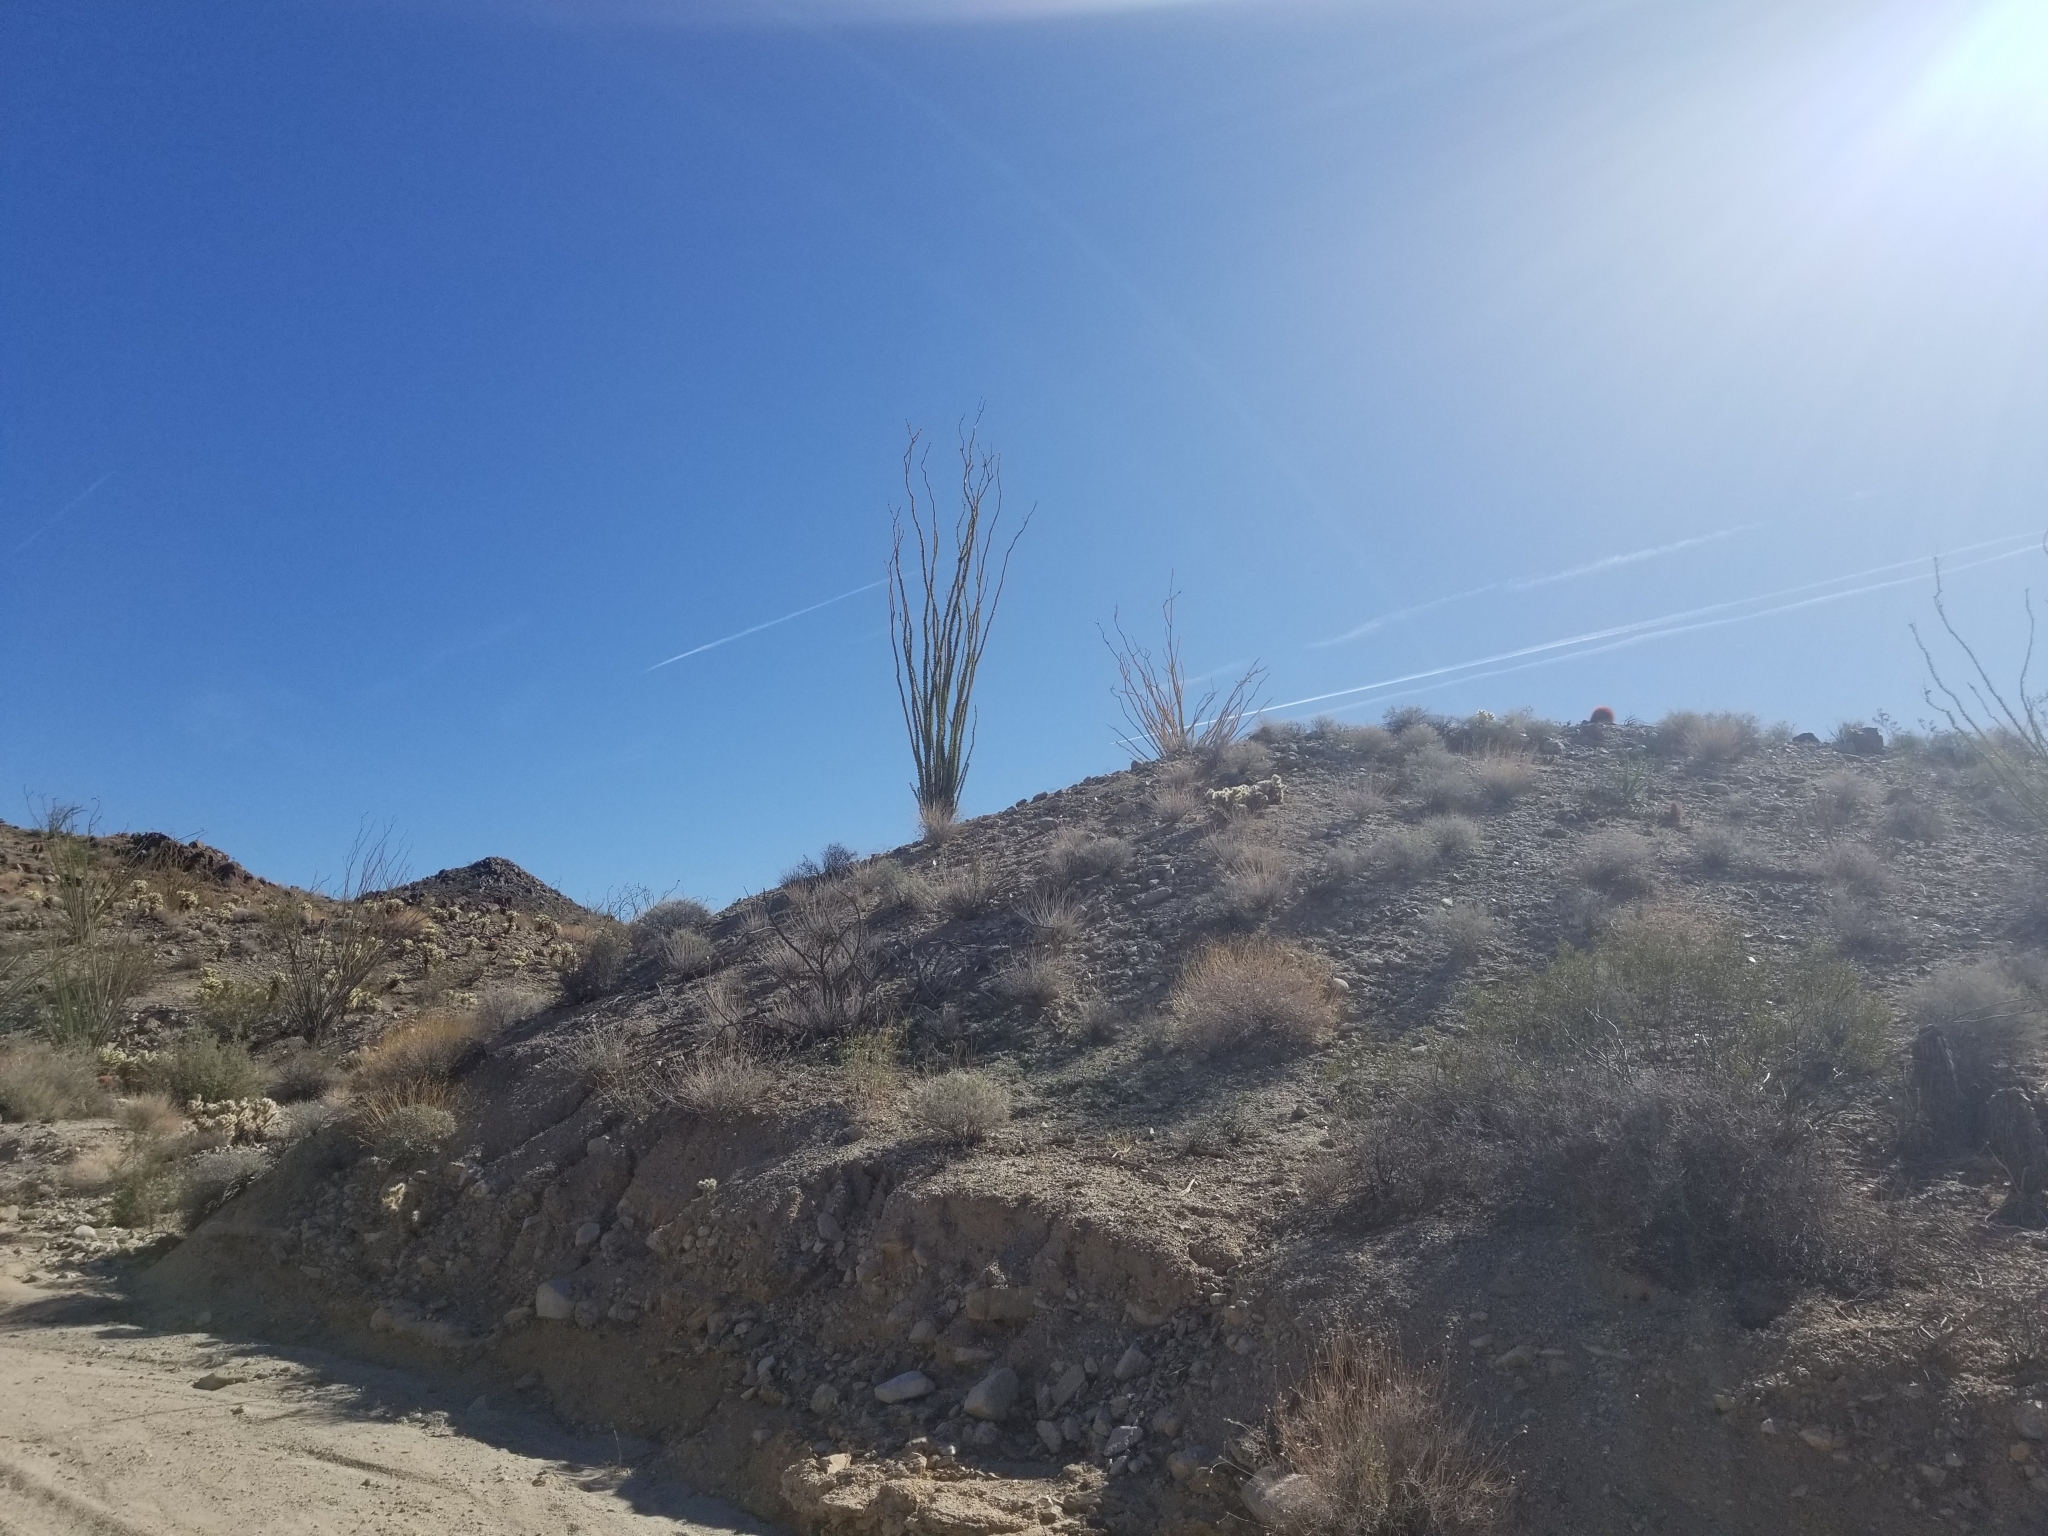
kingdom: Plantae
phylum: Tracheophyta
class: Magnoliopsida
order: Ericales
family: Fouquieriaceae
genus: Fouquieria
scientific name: Fouquieria splendens
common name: Vine-cactus
